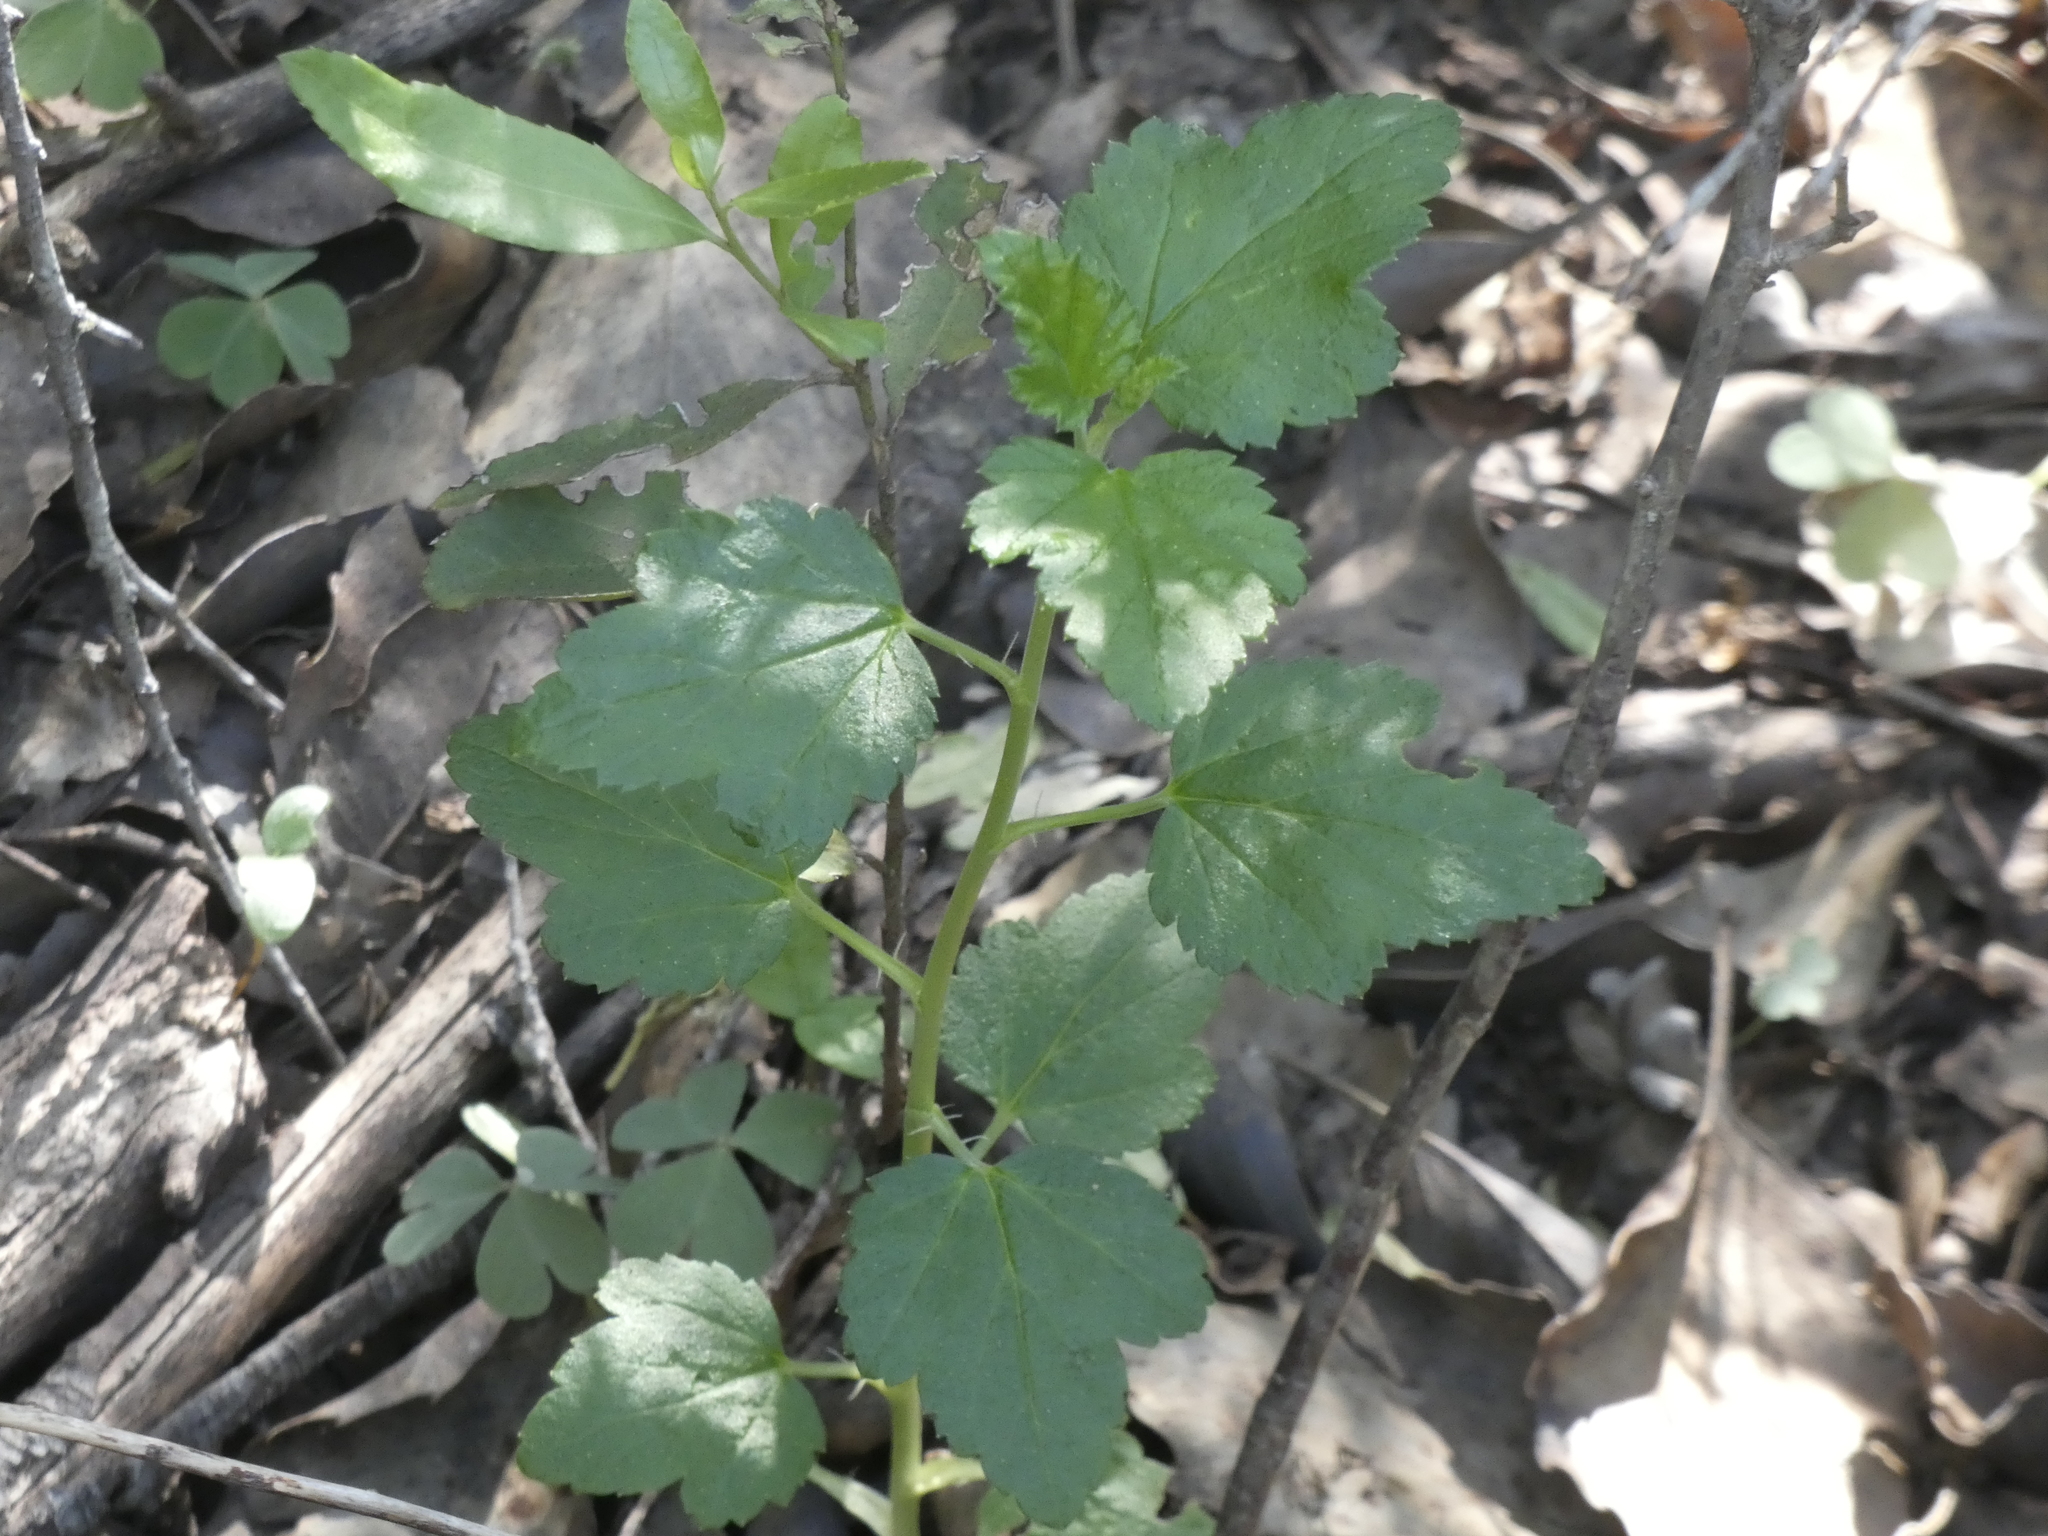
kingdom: Plantae
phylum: Tracheophyta
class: Magnoliopsida
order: Saxifragales
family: Grossulariaceae
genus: Ribes
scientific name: Ribes punctatum
